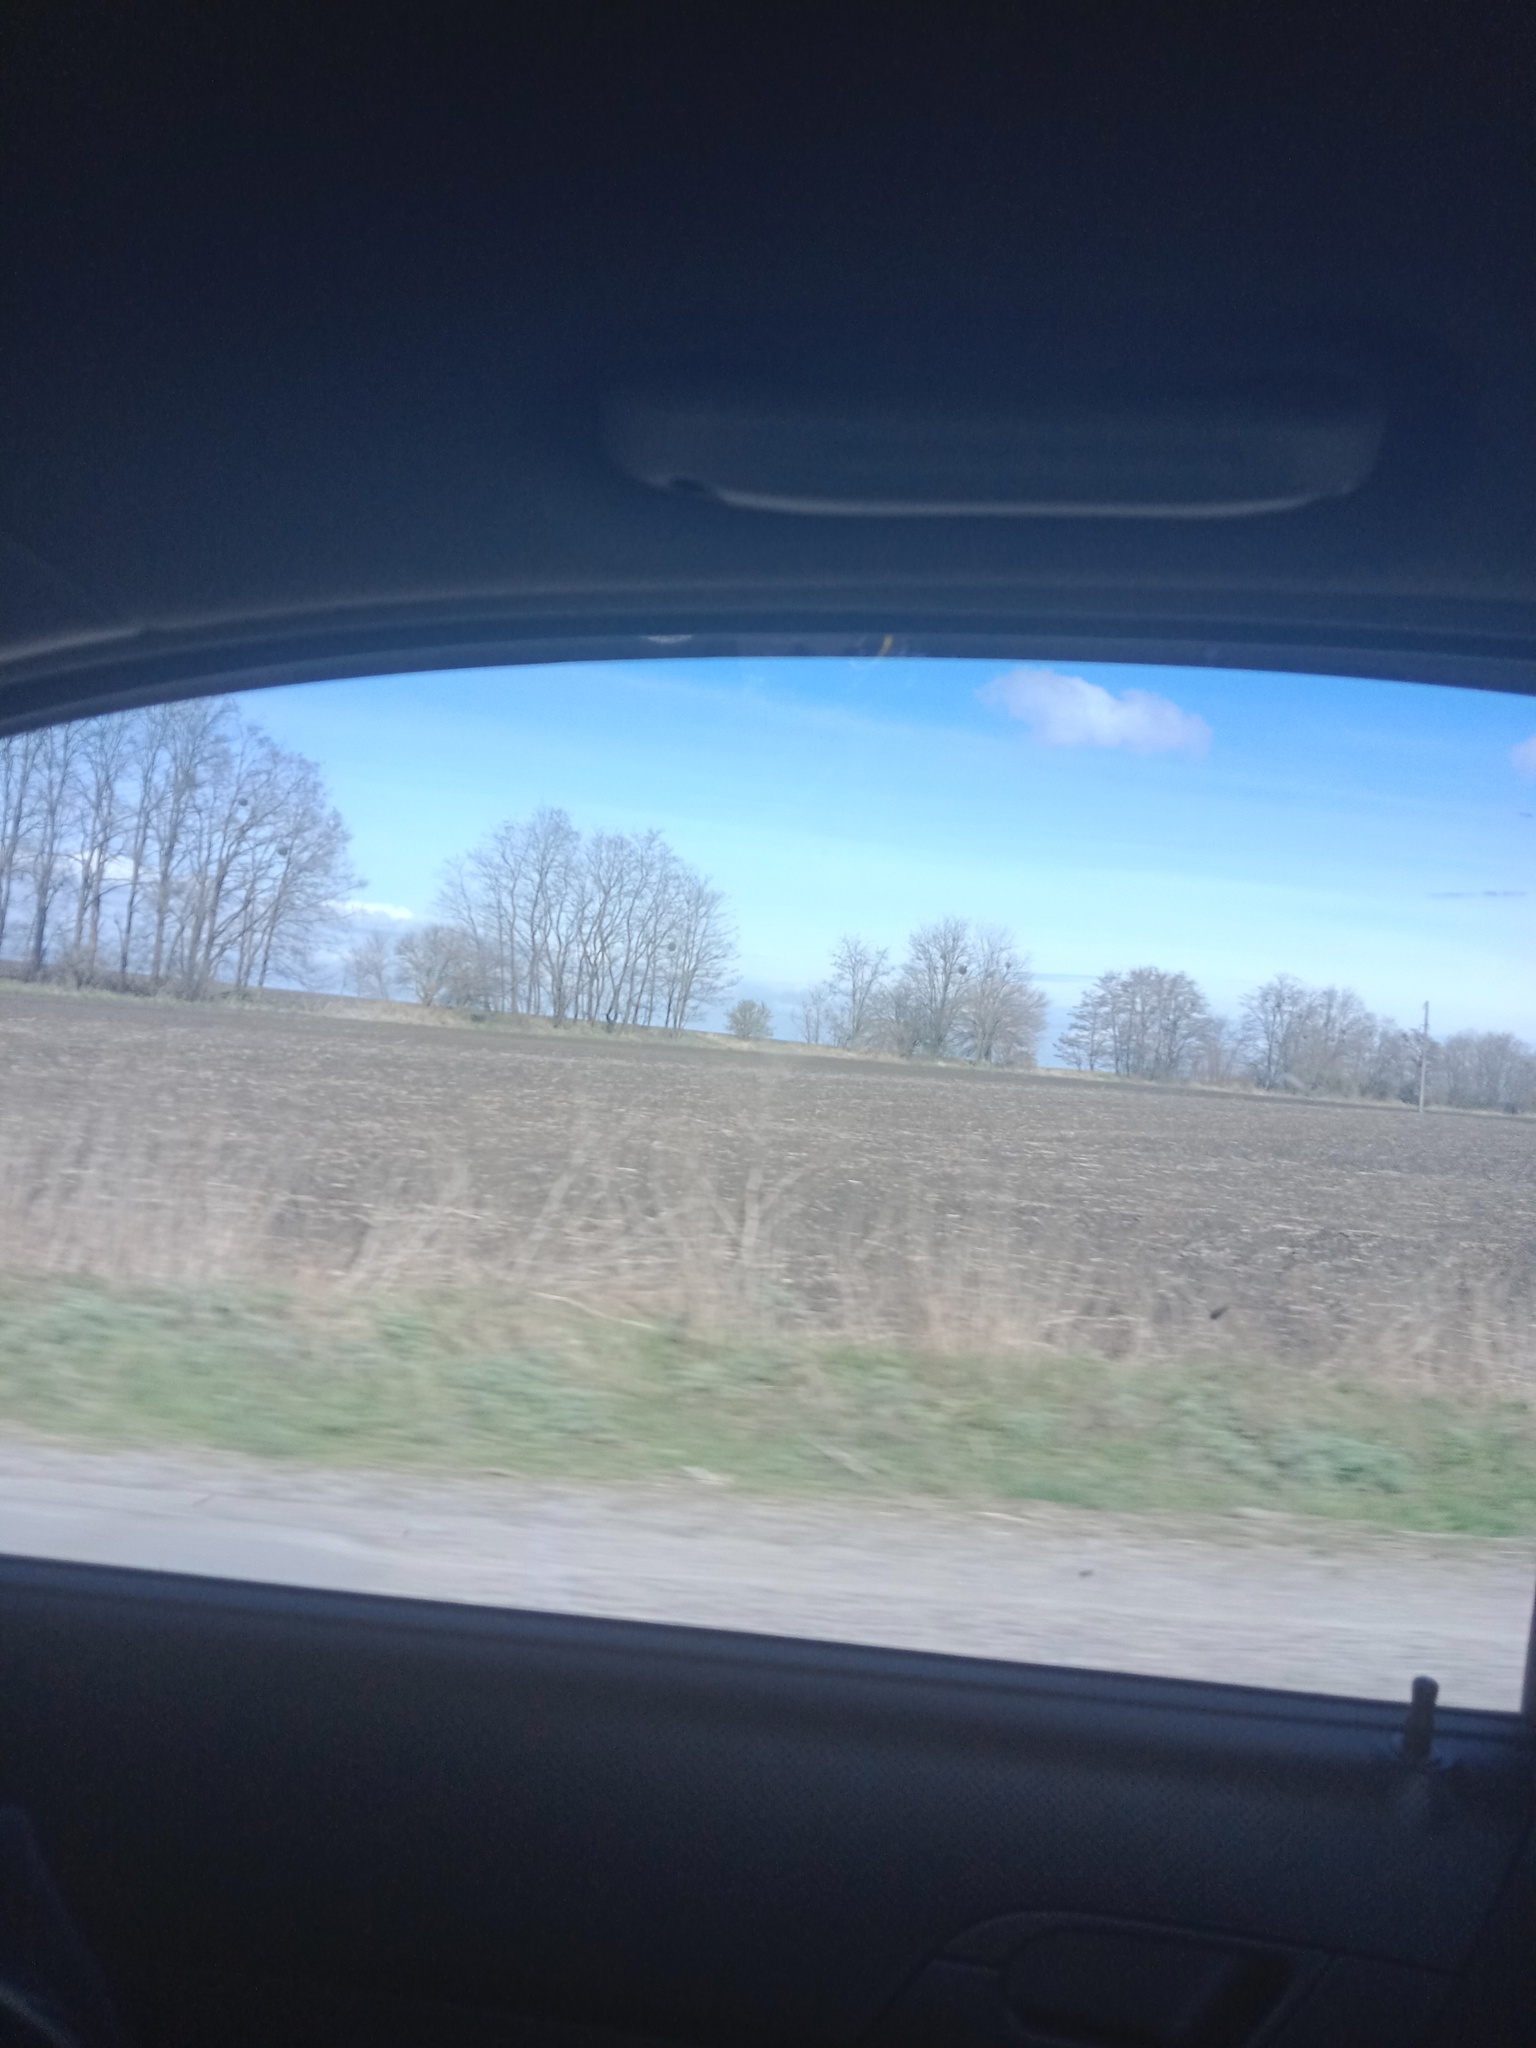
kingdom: Plantae
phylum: Tracheophyta
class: Magnoliopsida
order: Santalales
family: Viscaceae
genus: Viscum
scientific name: Viscum album
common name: Mistletoe
